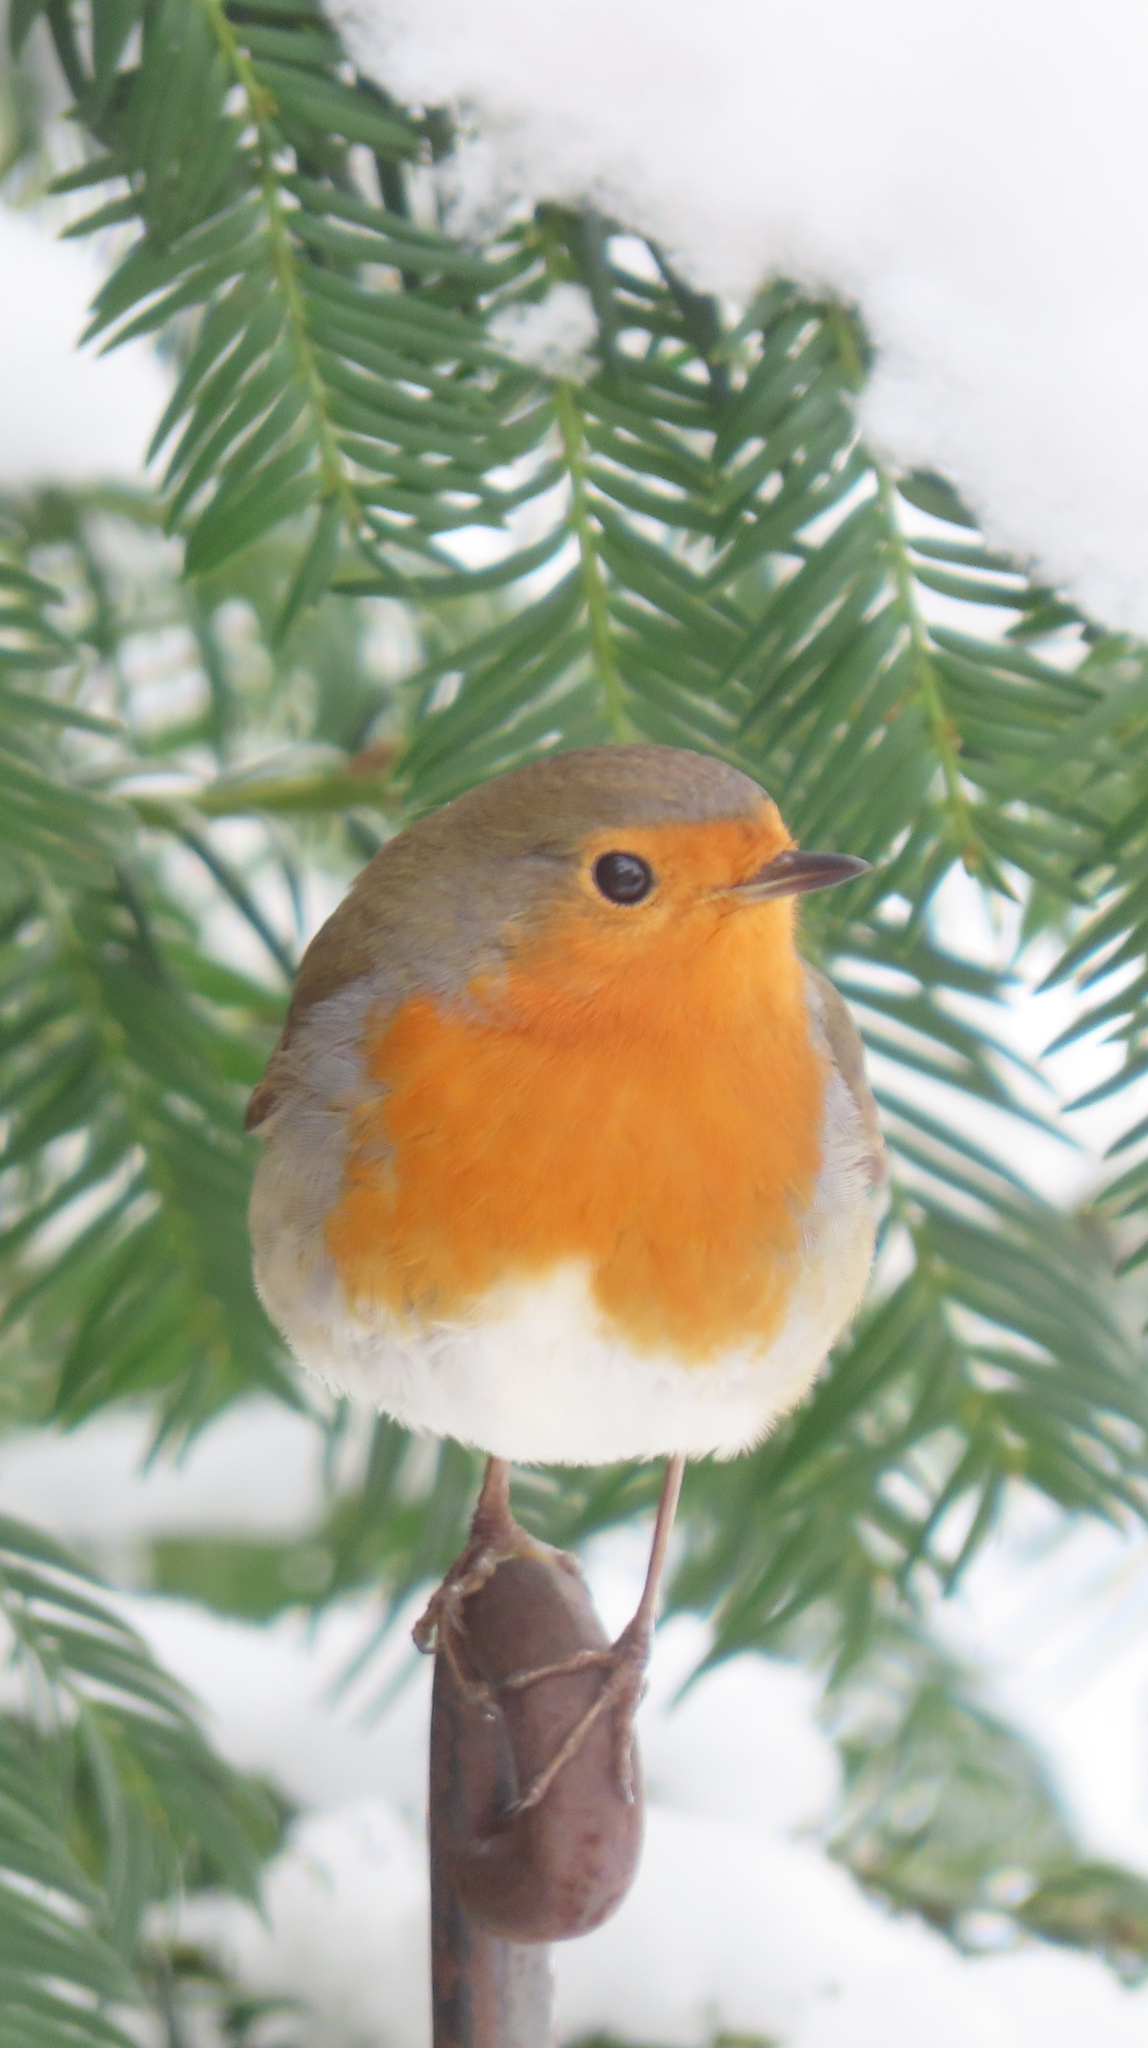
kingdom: Animalia
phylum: Chordata
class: Aves
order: Passeriformes
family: Muscicapidae
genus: Erithacus
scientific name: Erithacus rubecula
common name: European robin
